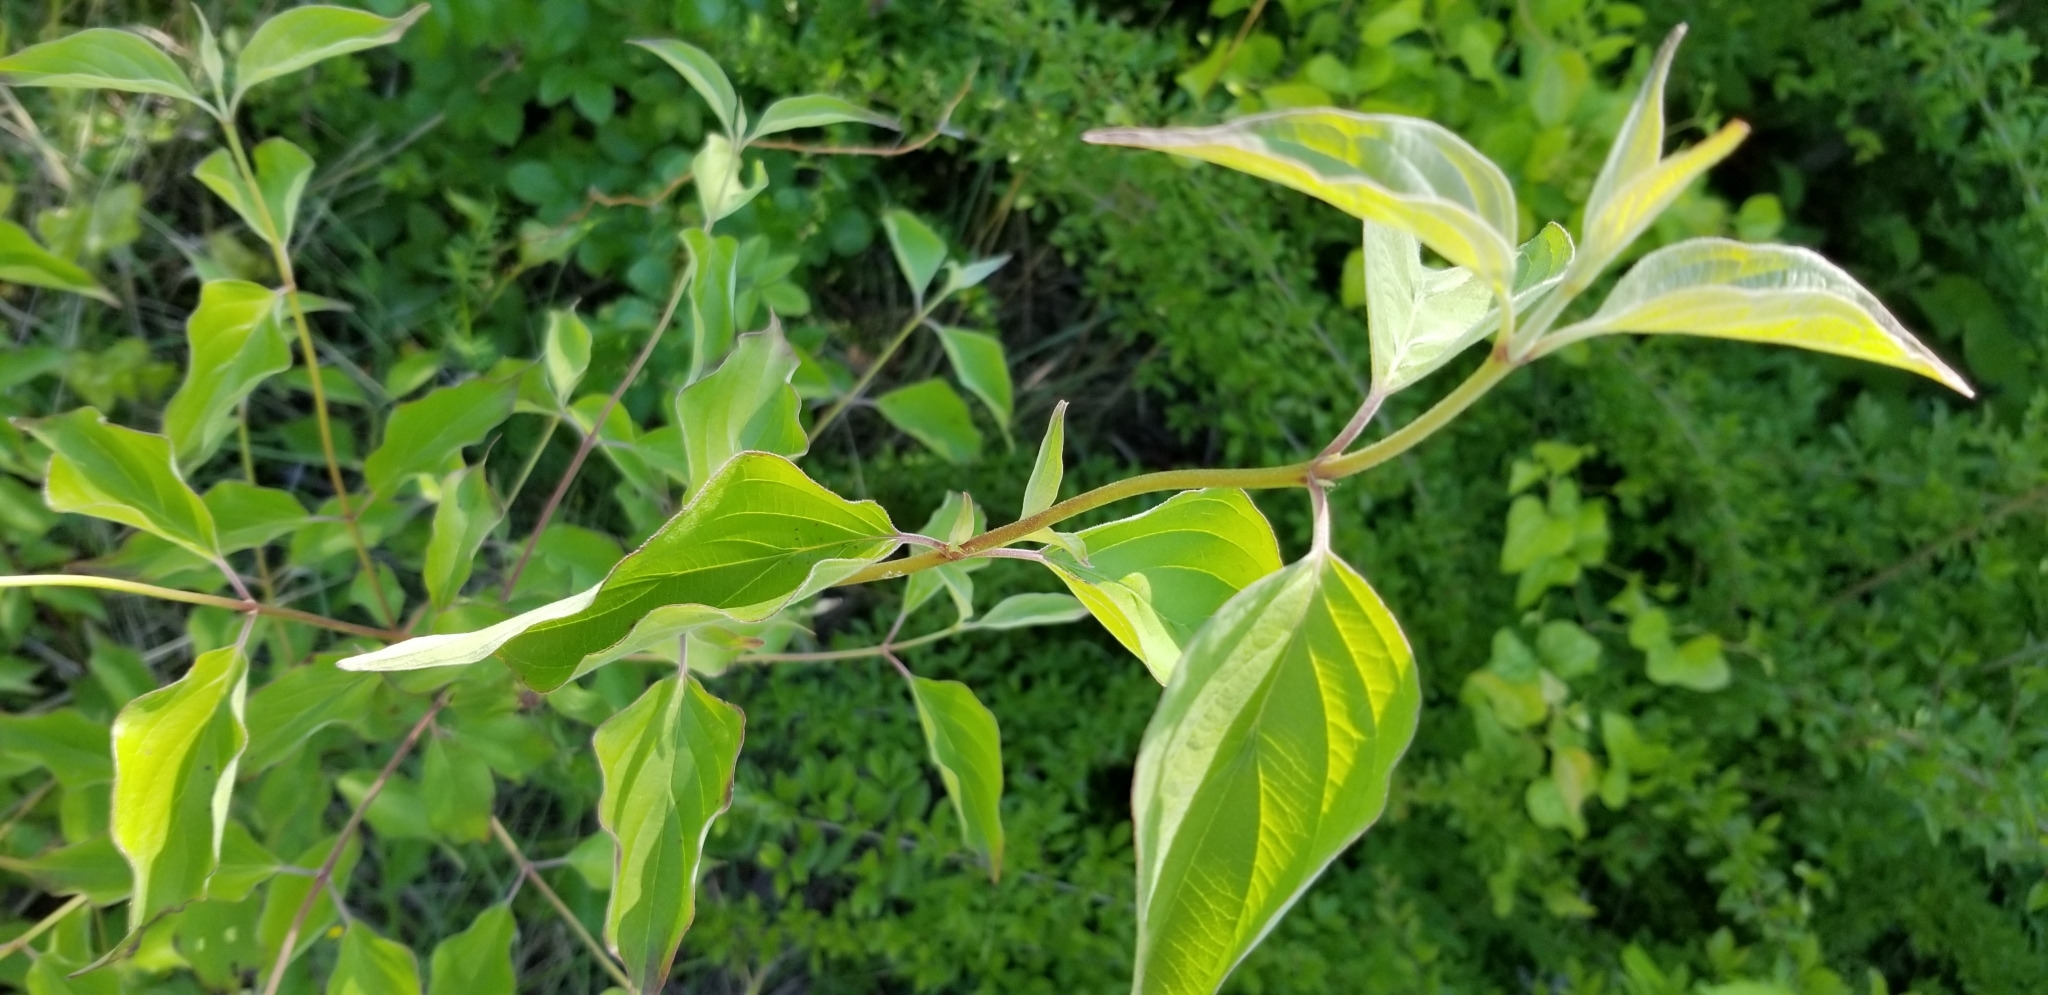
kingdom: Plantae
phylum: Tracheophyta
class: Magnoliopsida
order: Cornales
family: Cornaceae
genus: Cornus
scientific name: Cornus drummondii
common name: Rough-leaf dogwood
